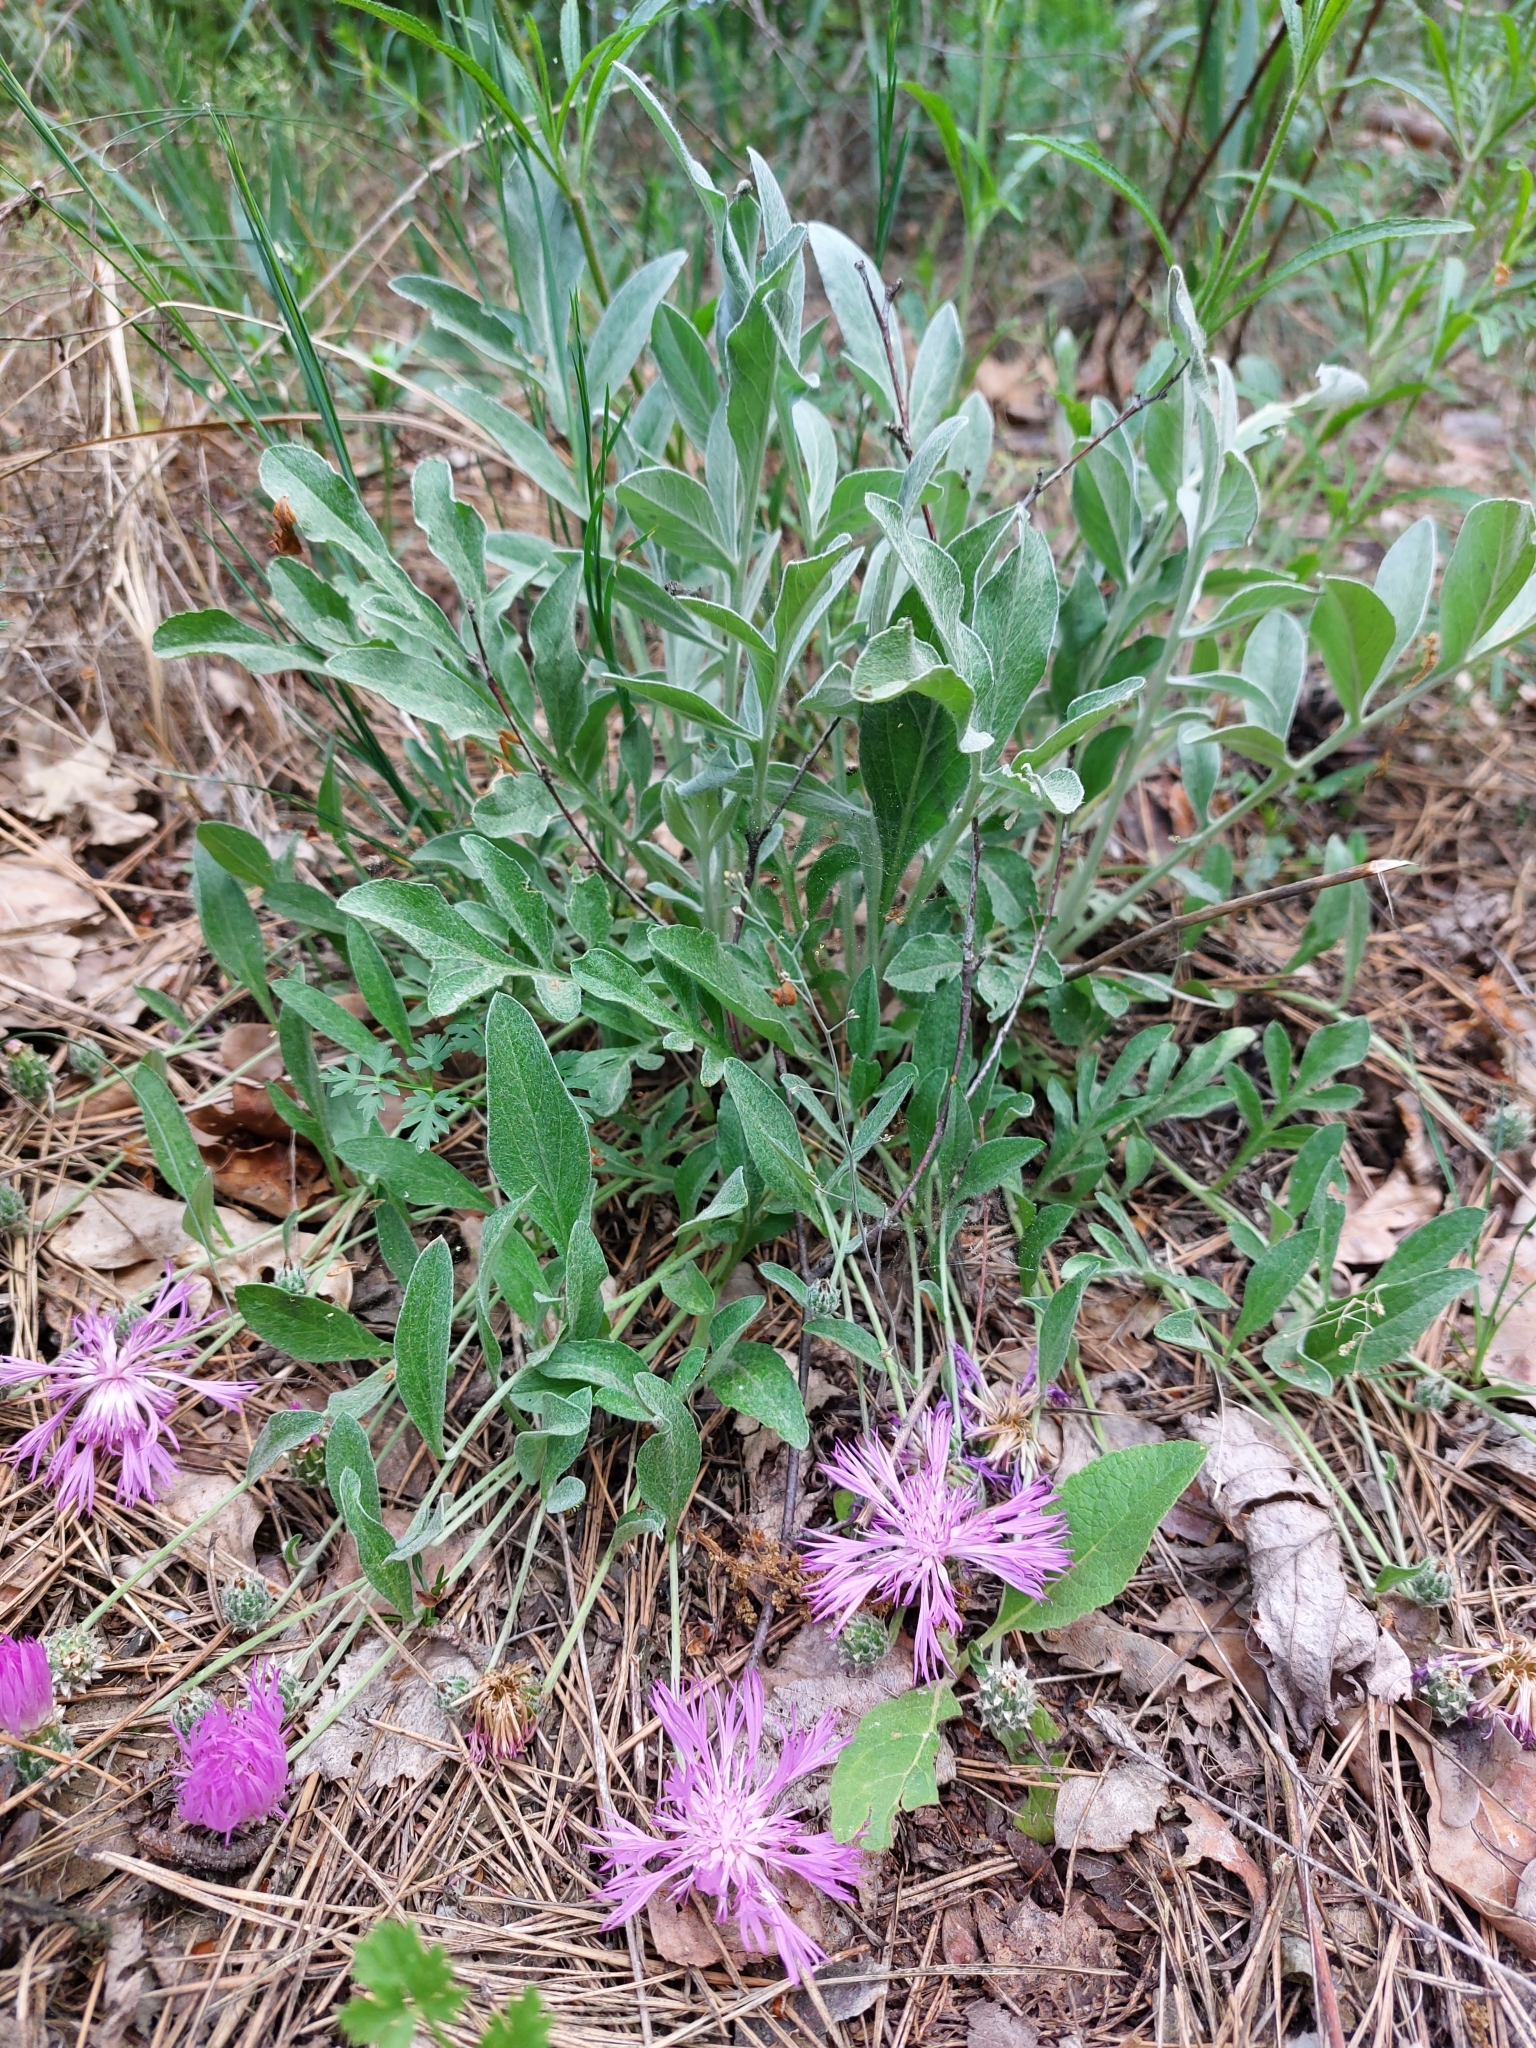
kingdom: Plantae
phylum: Tracheophyta
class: Magnoliopsida
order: Asterales
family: Asteraceae
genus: Psephellus
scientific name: Psephellus sumensis
